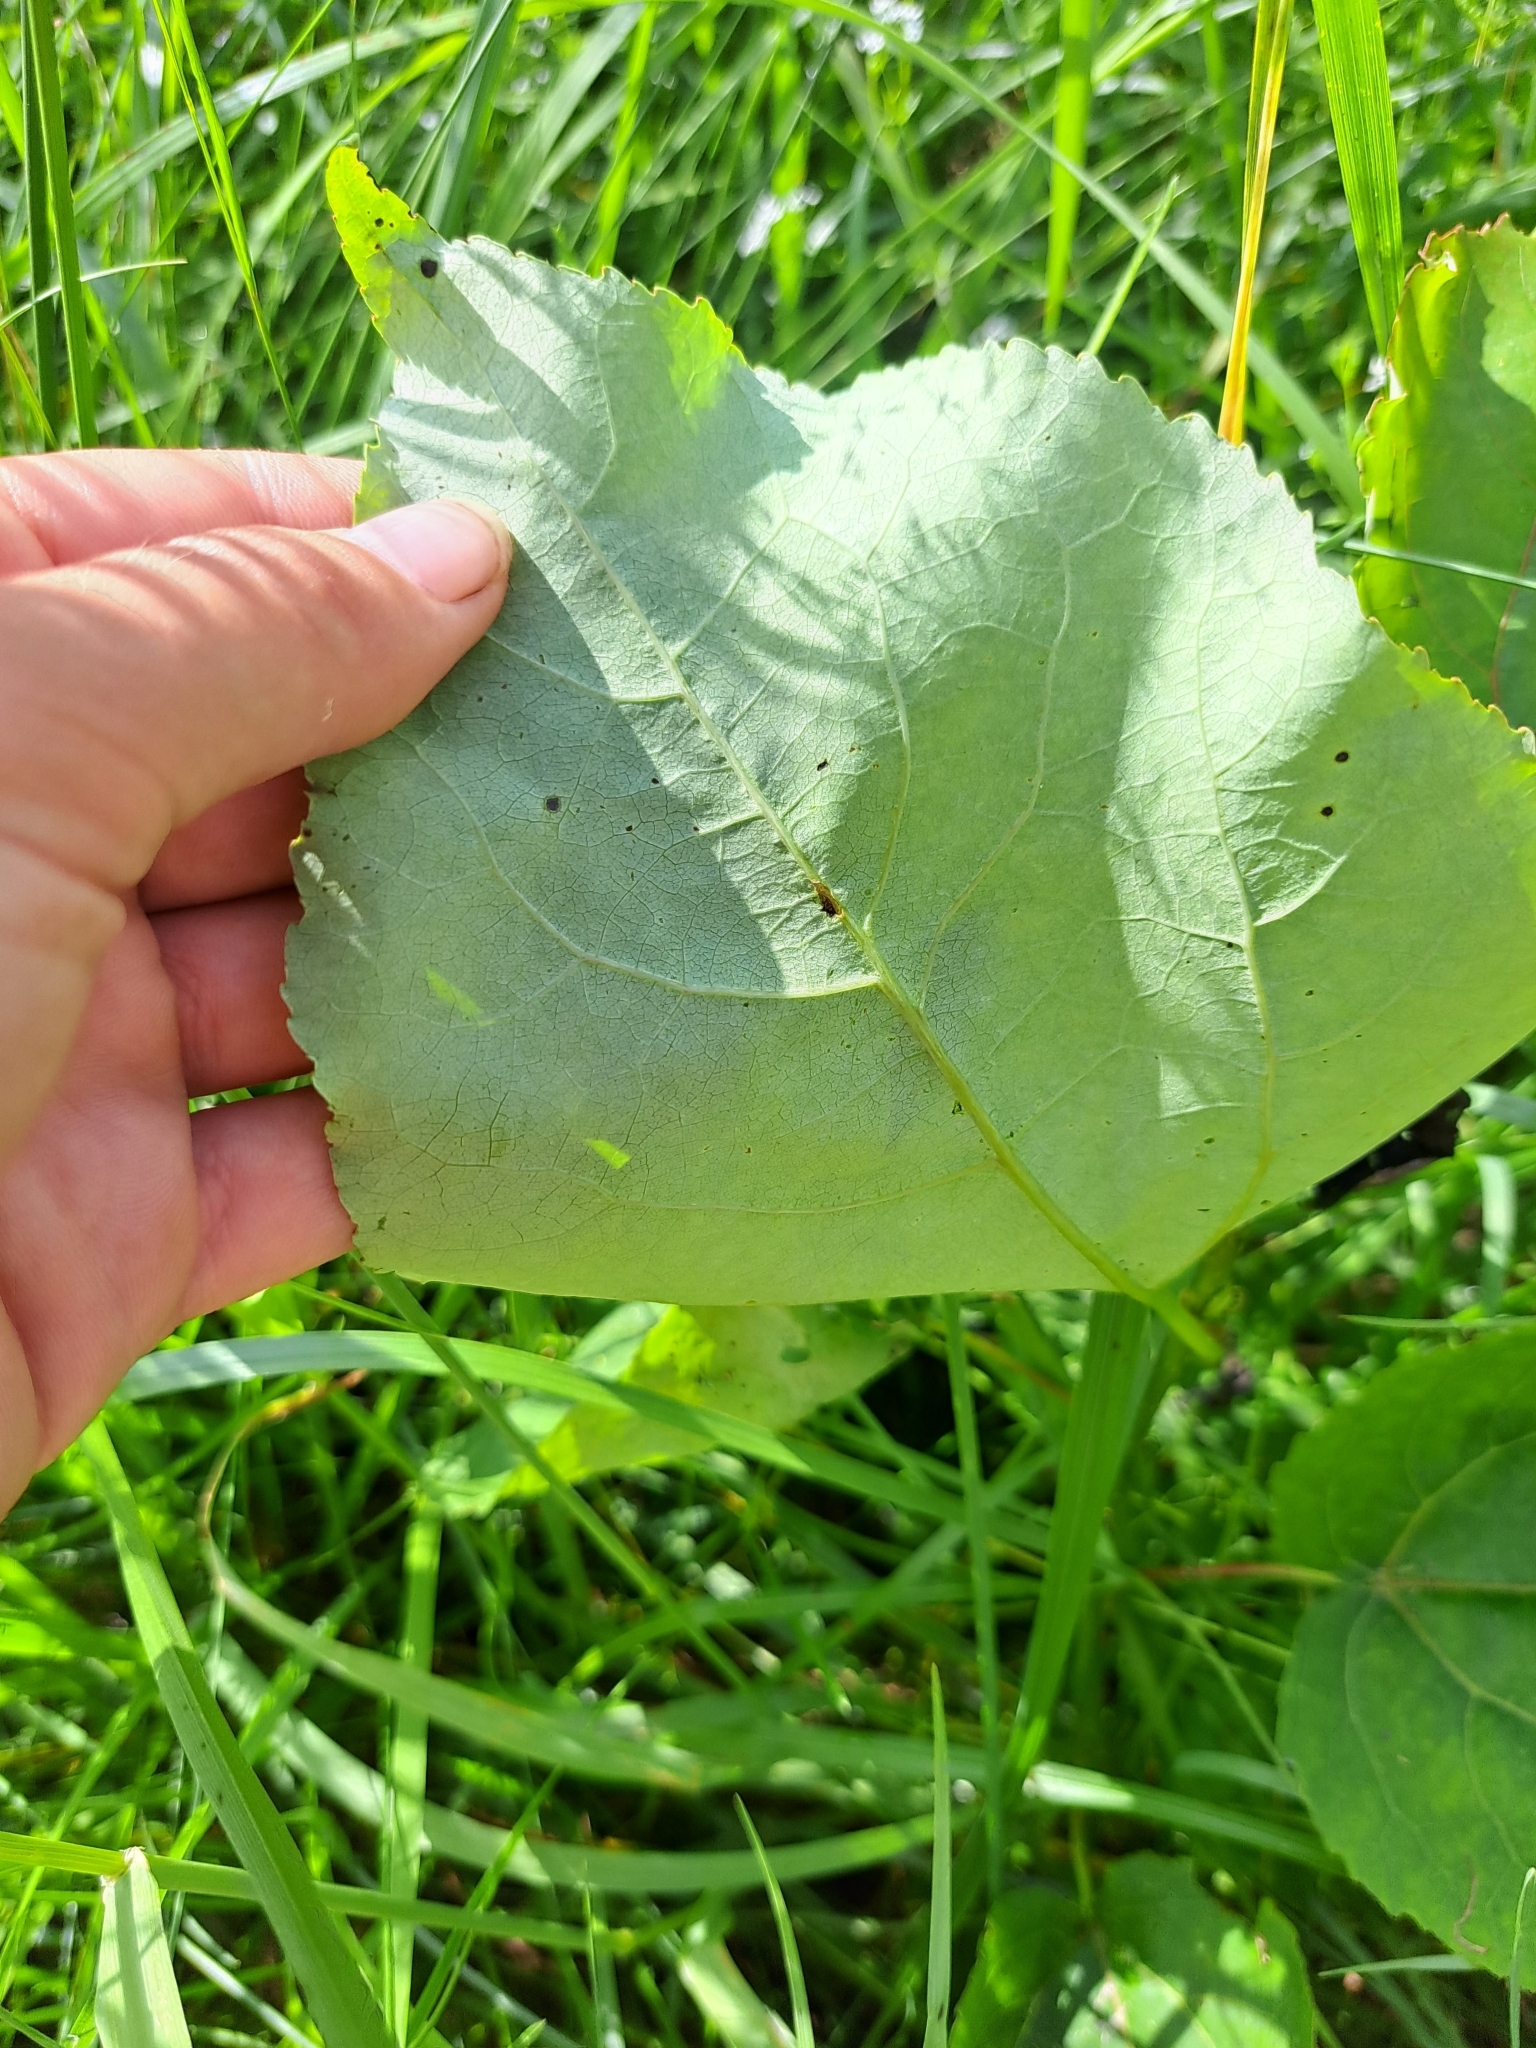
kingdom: Plantae
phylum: Tracheophyta
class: Magnoliopsida
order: Malpighiales
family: Salicaceae
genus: Populus
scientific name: Populus tremuloides
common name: Quaking aspen
